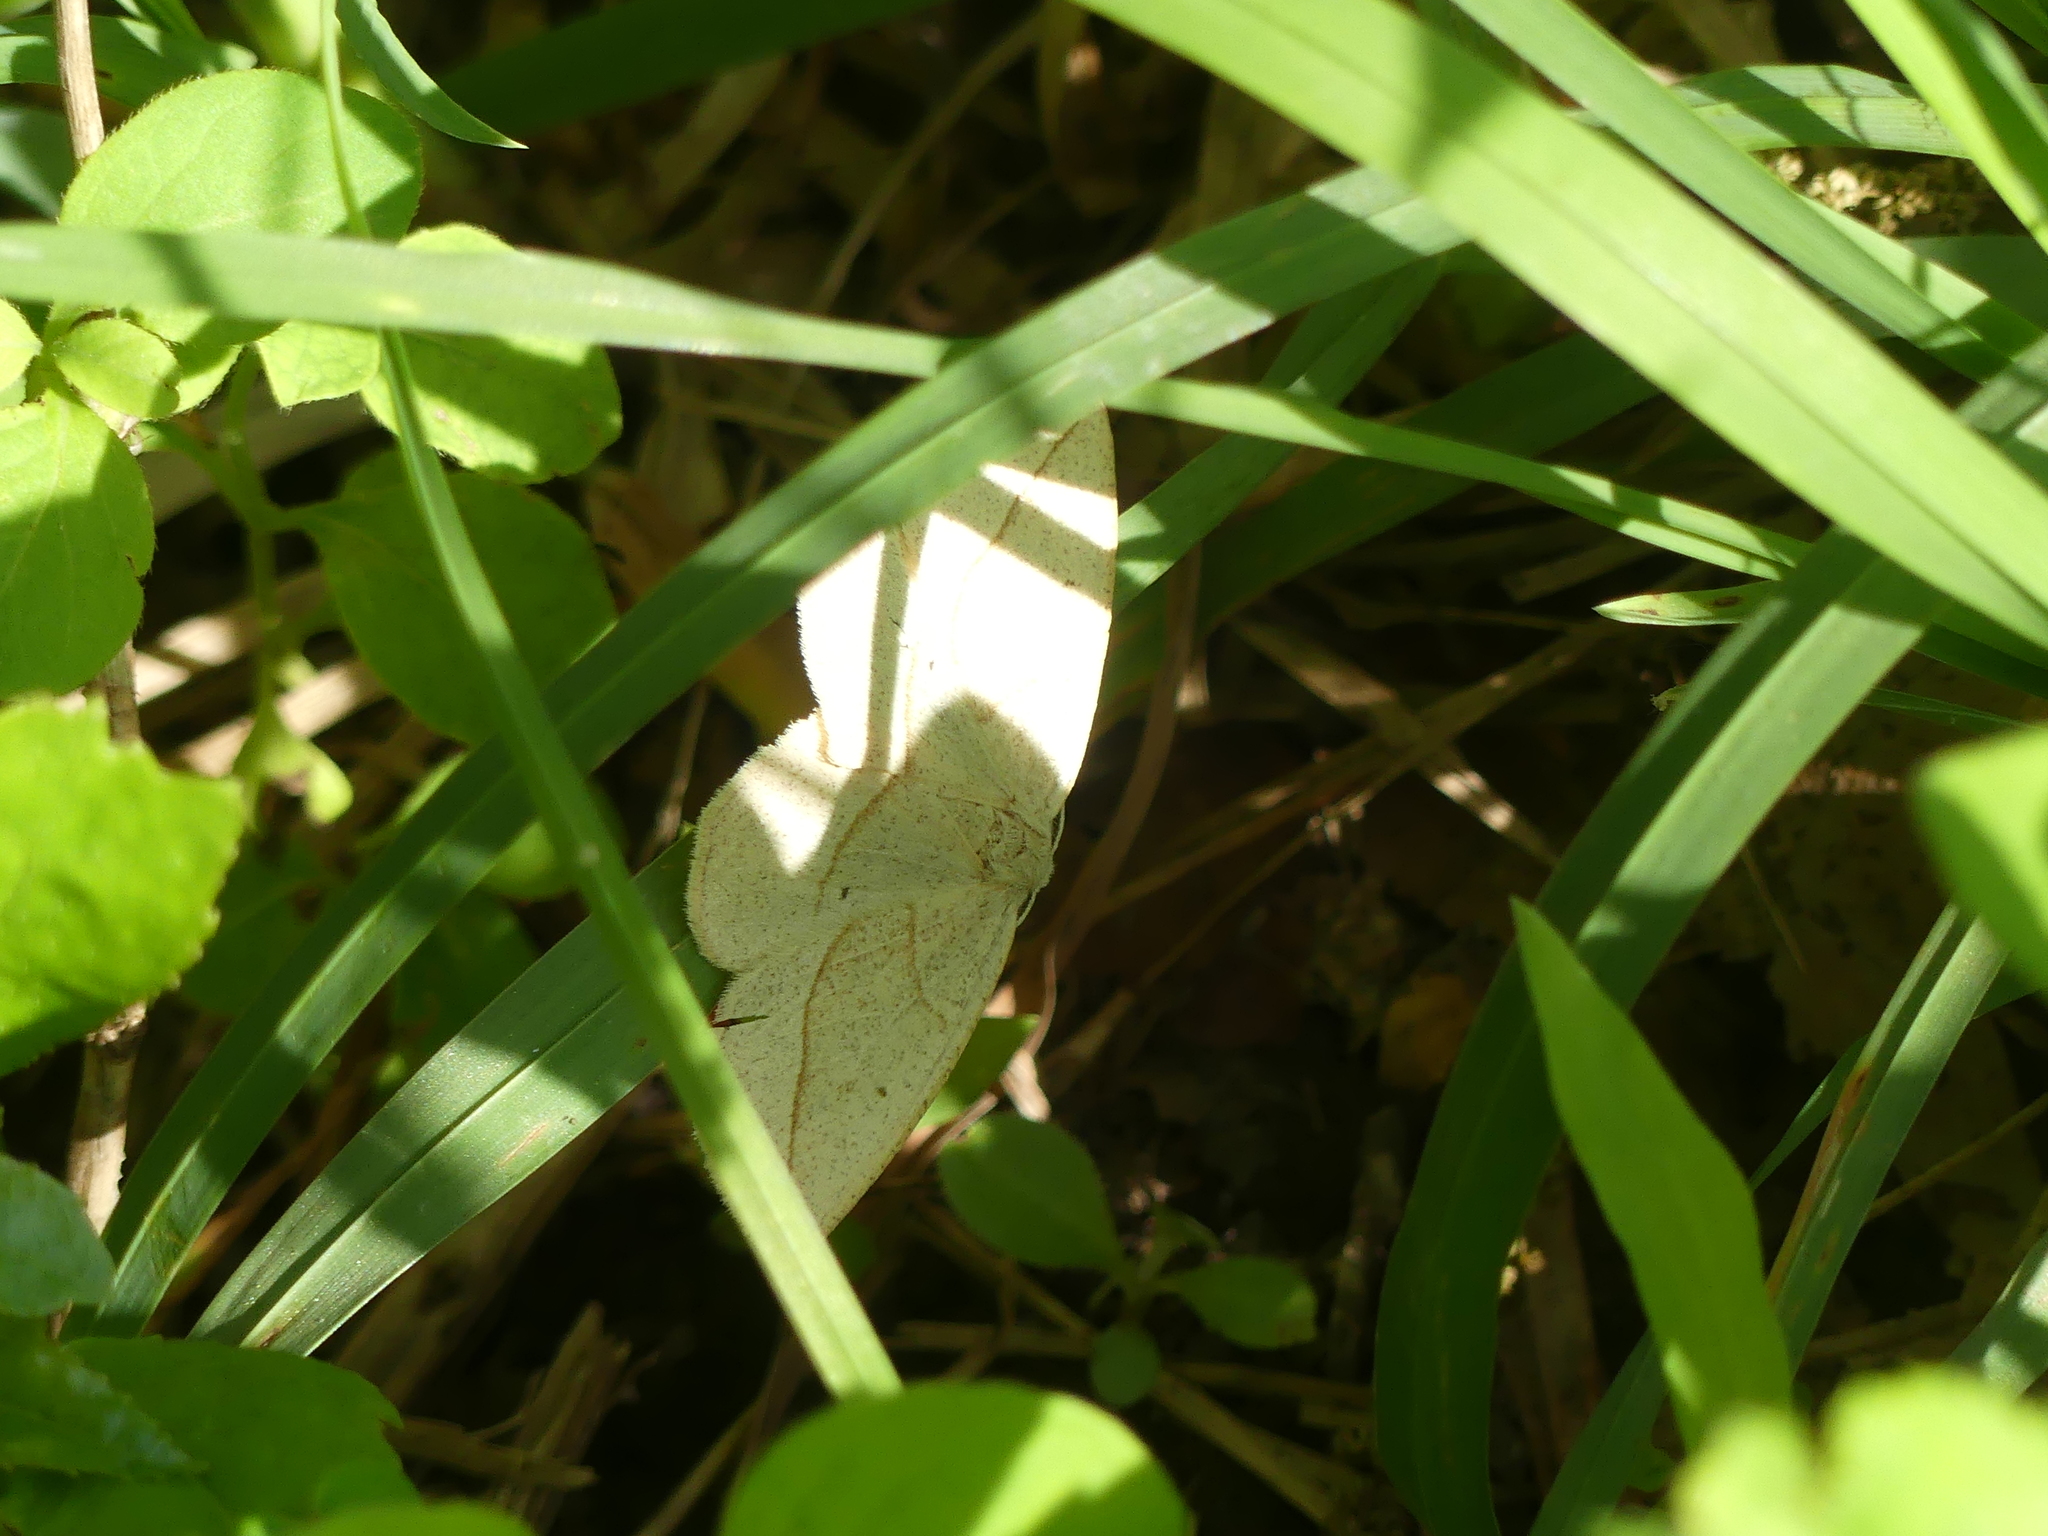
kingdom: Animalia
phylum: Arthropoda
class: Insecta
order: Lepidoptera
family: Geometridae
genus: Eusarca
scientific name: Eusarca confusaria
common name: Confused eusarca
